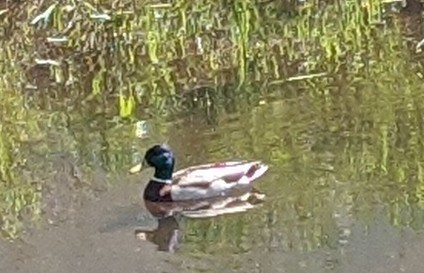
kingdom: Animalia
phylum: Chordata
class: Aves
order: Anseriformes
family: Anatidae
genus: Anas
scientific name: Anas platyrhynchos
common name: Mallard
